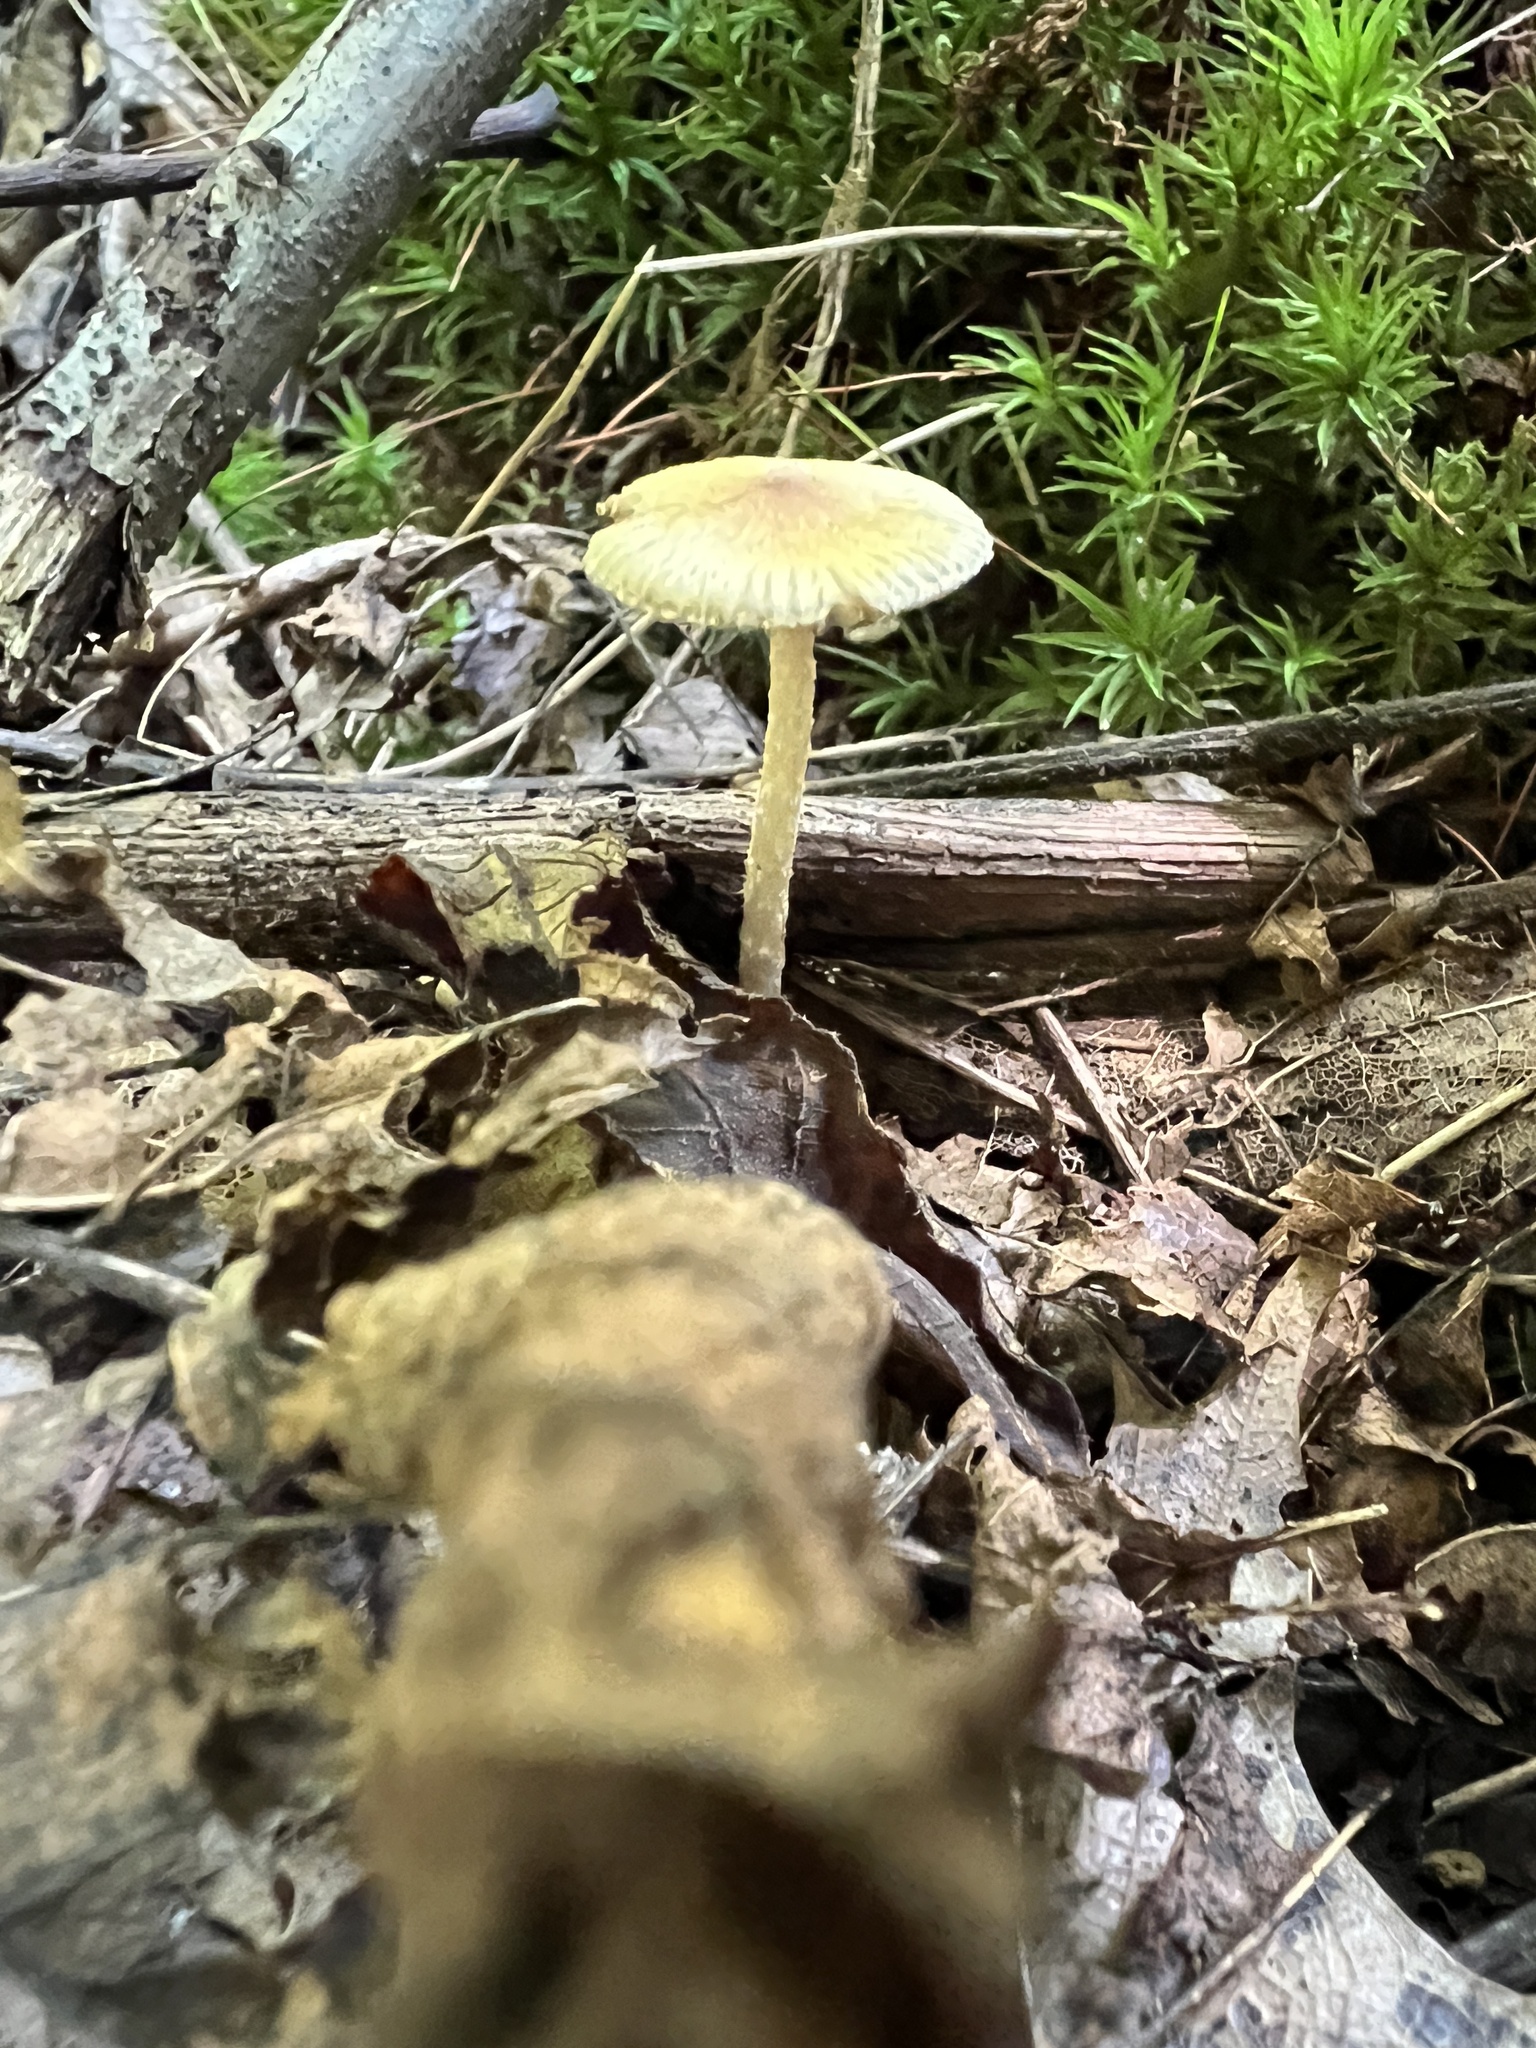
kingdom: Fungi
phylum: Basidiomycota
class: Agaricomycetes
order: Agaricales
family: Inocybaceae
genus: Pseudosperma
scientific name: Pseudosperma friabile
